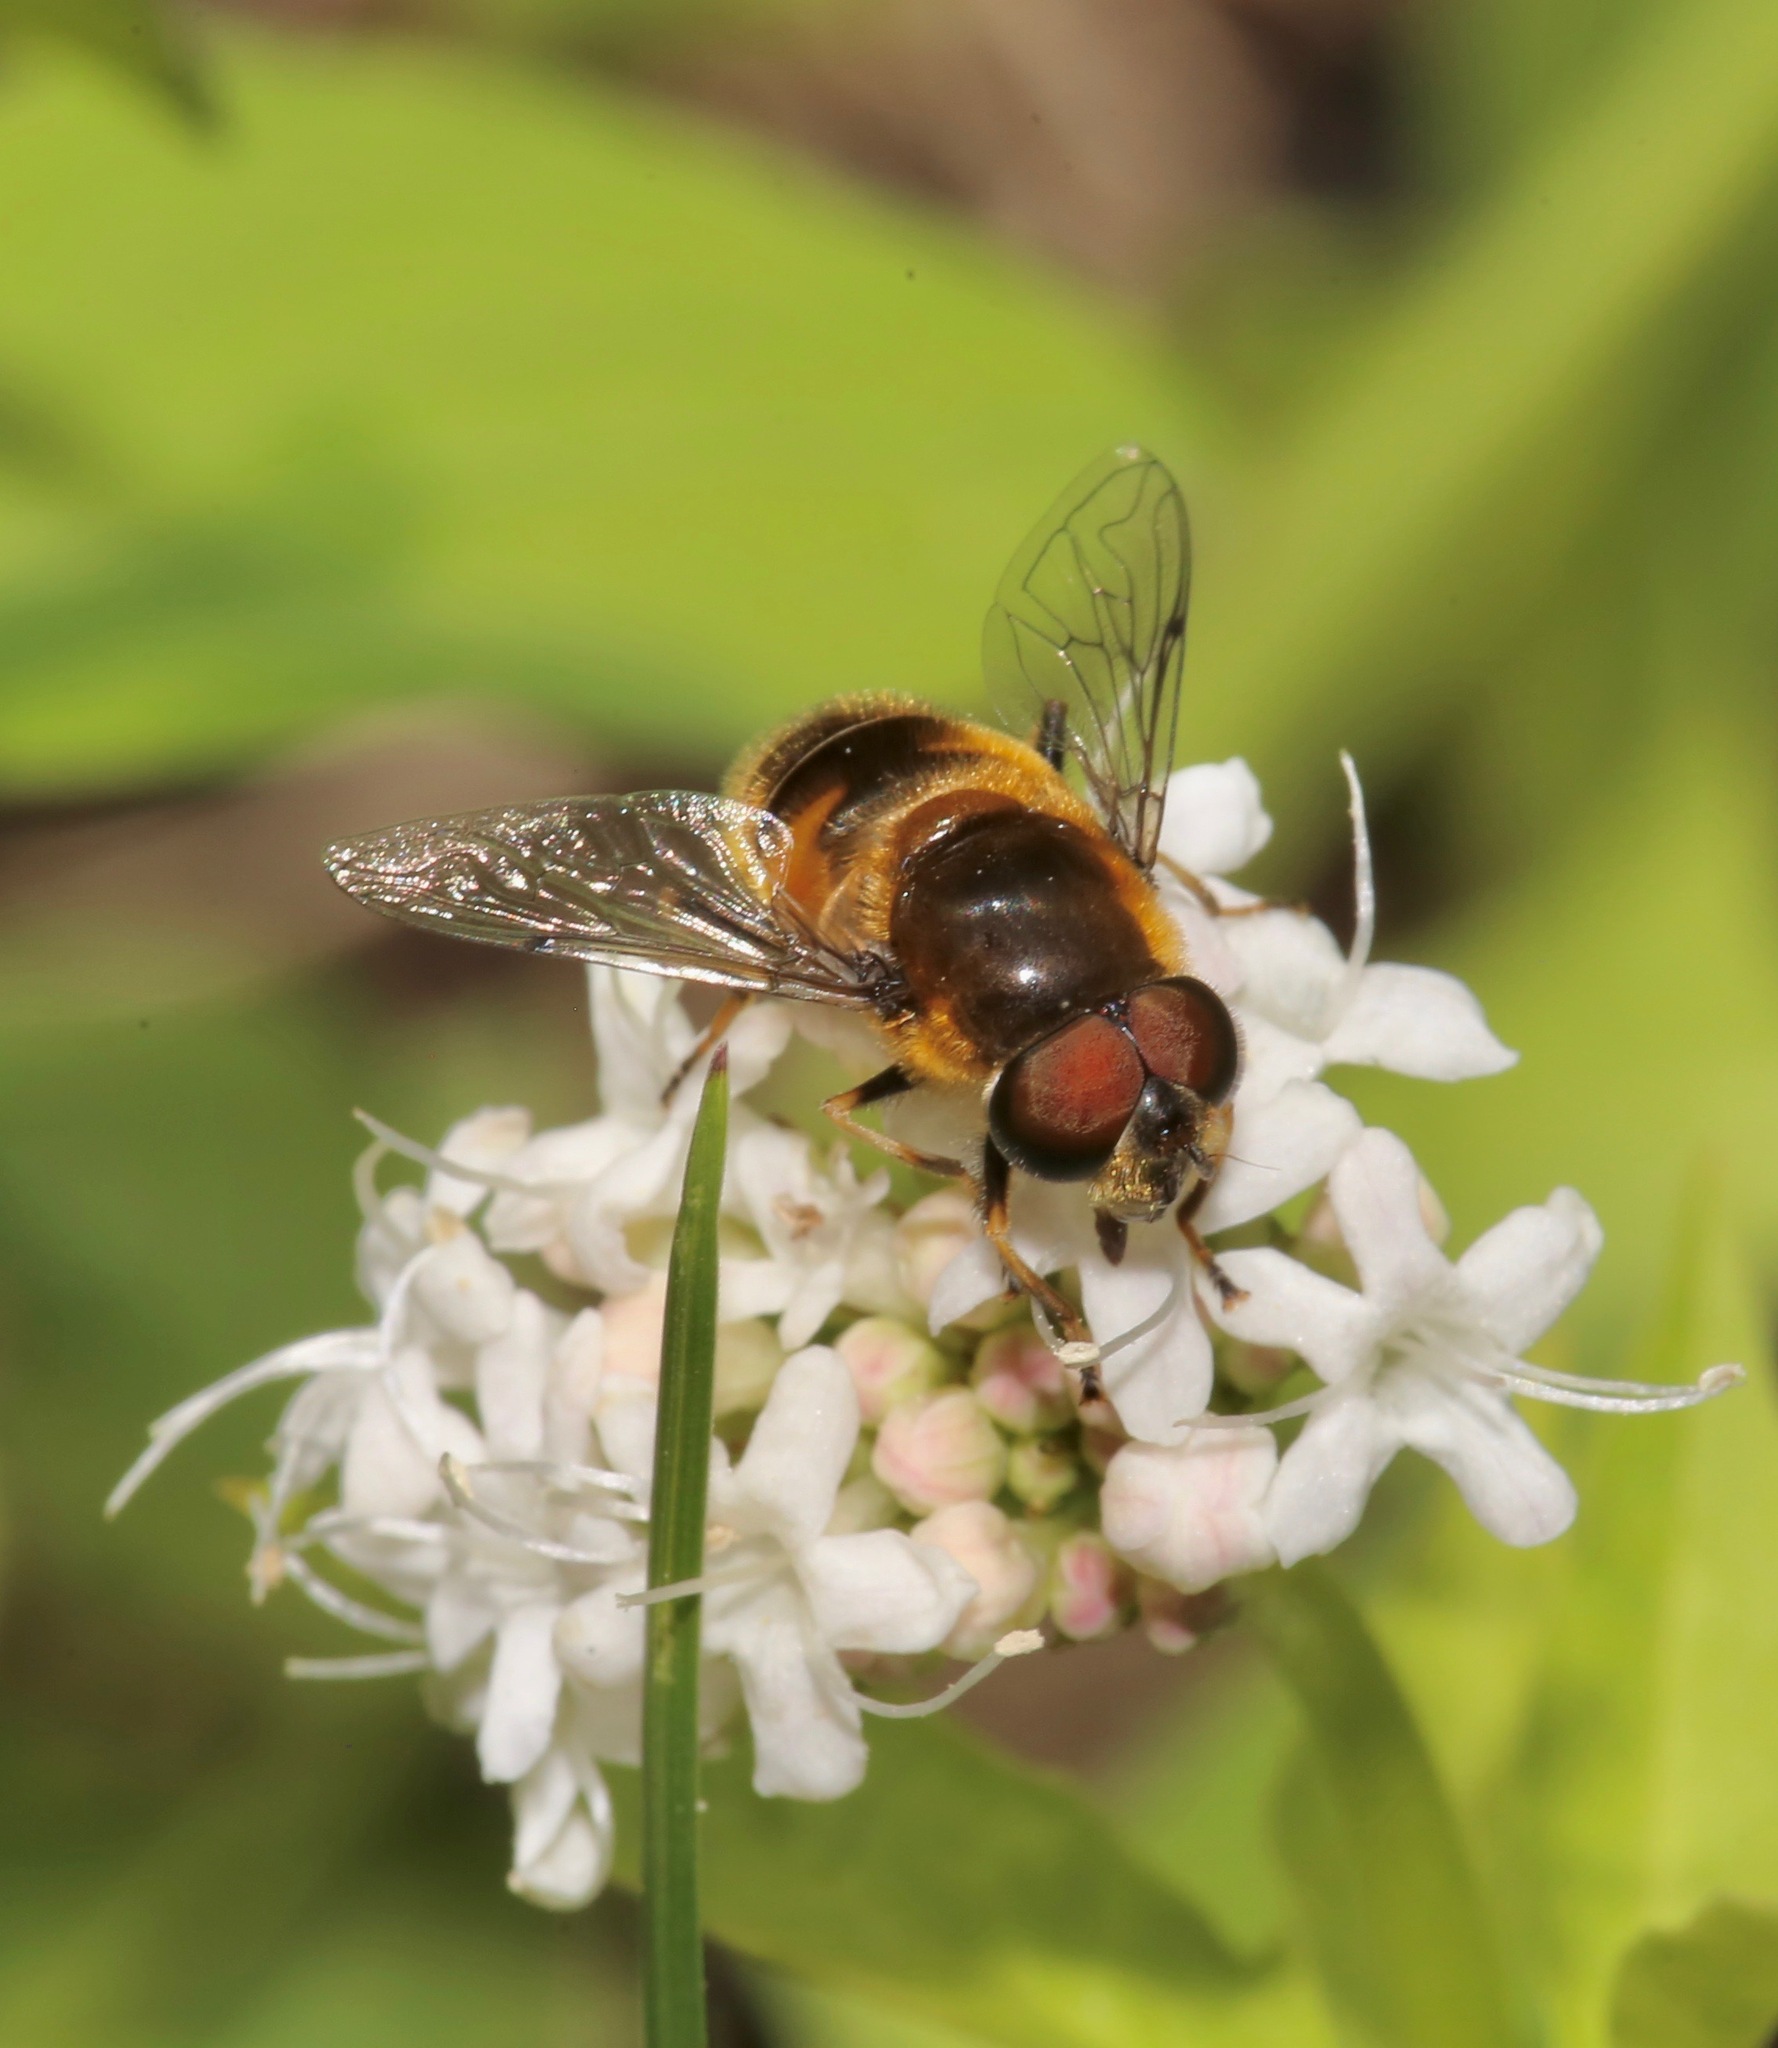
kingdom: Animalia
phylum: Arthropoda
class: Insecta
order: Diptera
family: Syrphidae
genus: Eristalis
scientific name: Eristalis nemorum
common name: Orange-spined drone fly
